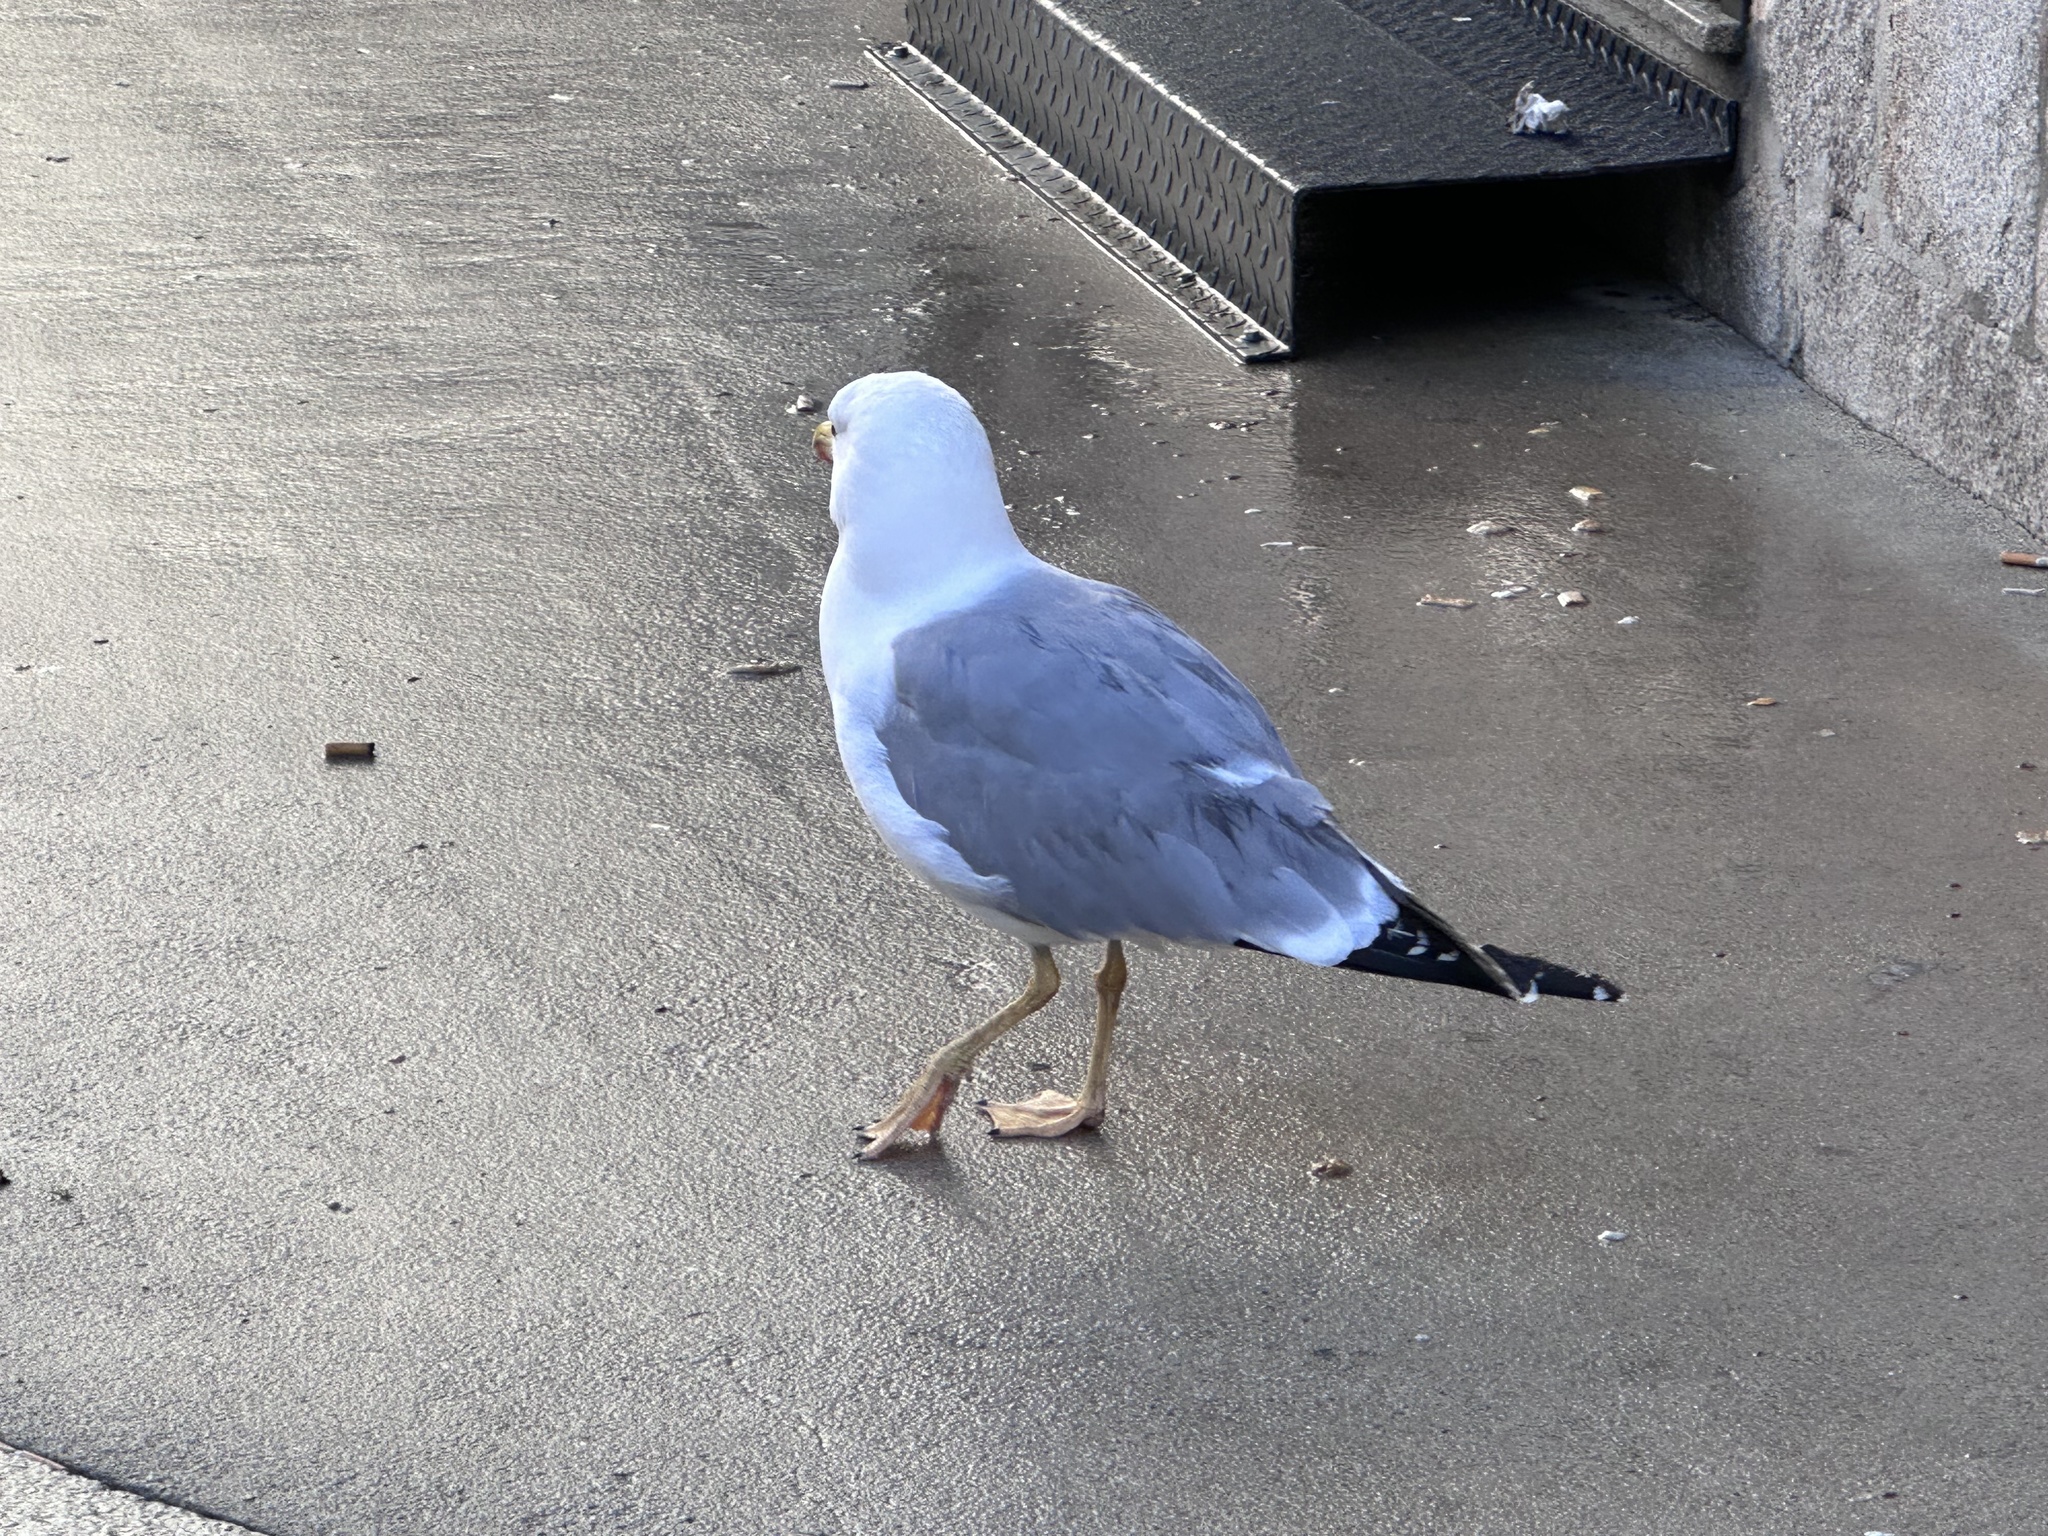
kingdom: Animalia
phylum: Chordata
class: Aves
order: Charadriiformes
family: Laridae
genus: Larus
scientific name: Larus michahellis
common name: Yellow-legged gull
